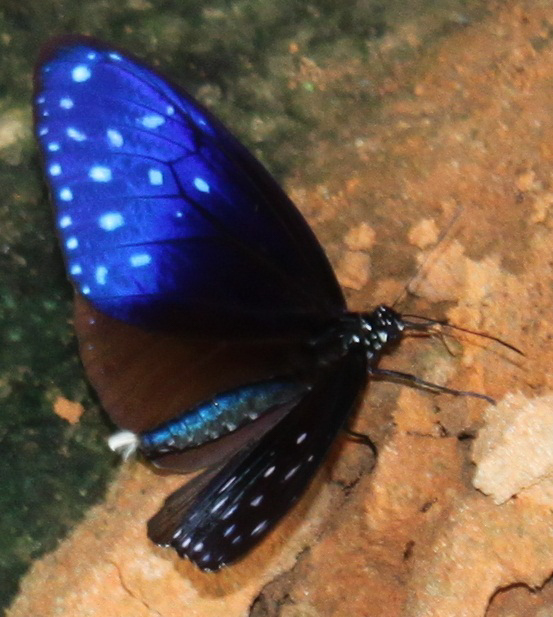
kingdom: Animalia
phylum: Arthropoda
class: Insecta
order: Lepidoptera
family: Nymphalidae
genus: Euploea
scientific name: Euploea mulciber
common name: Striped blue crow butterfly
